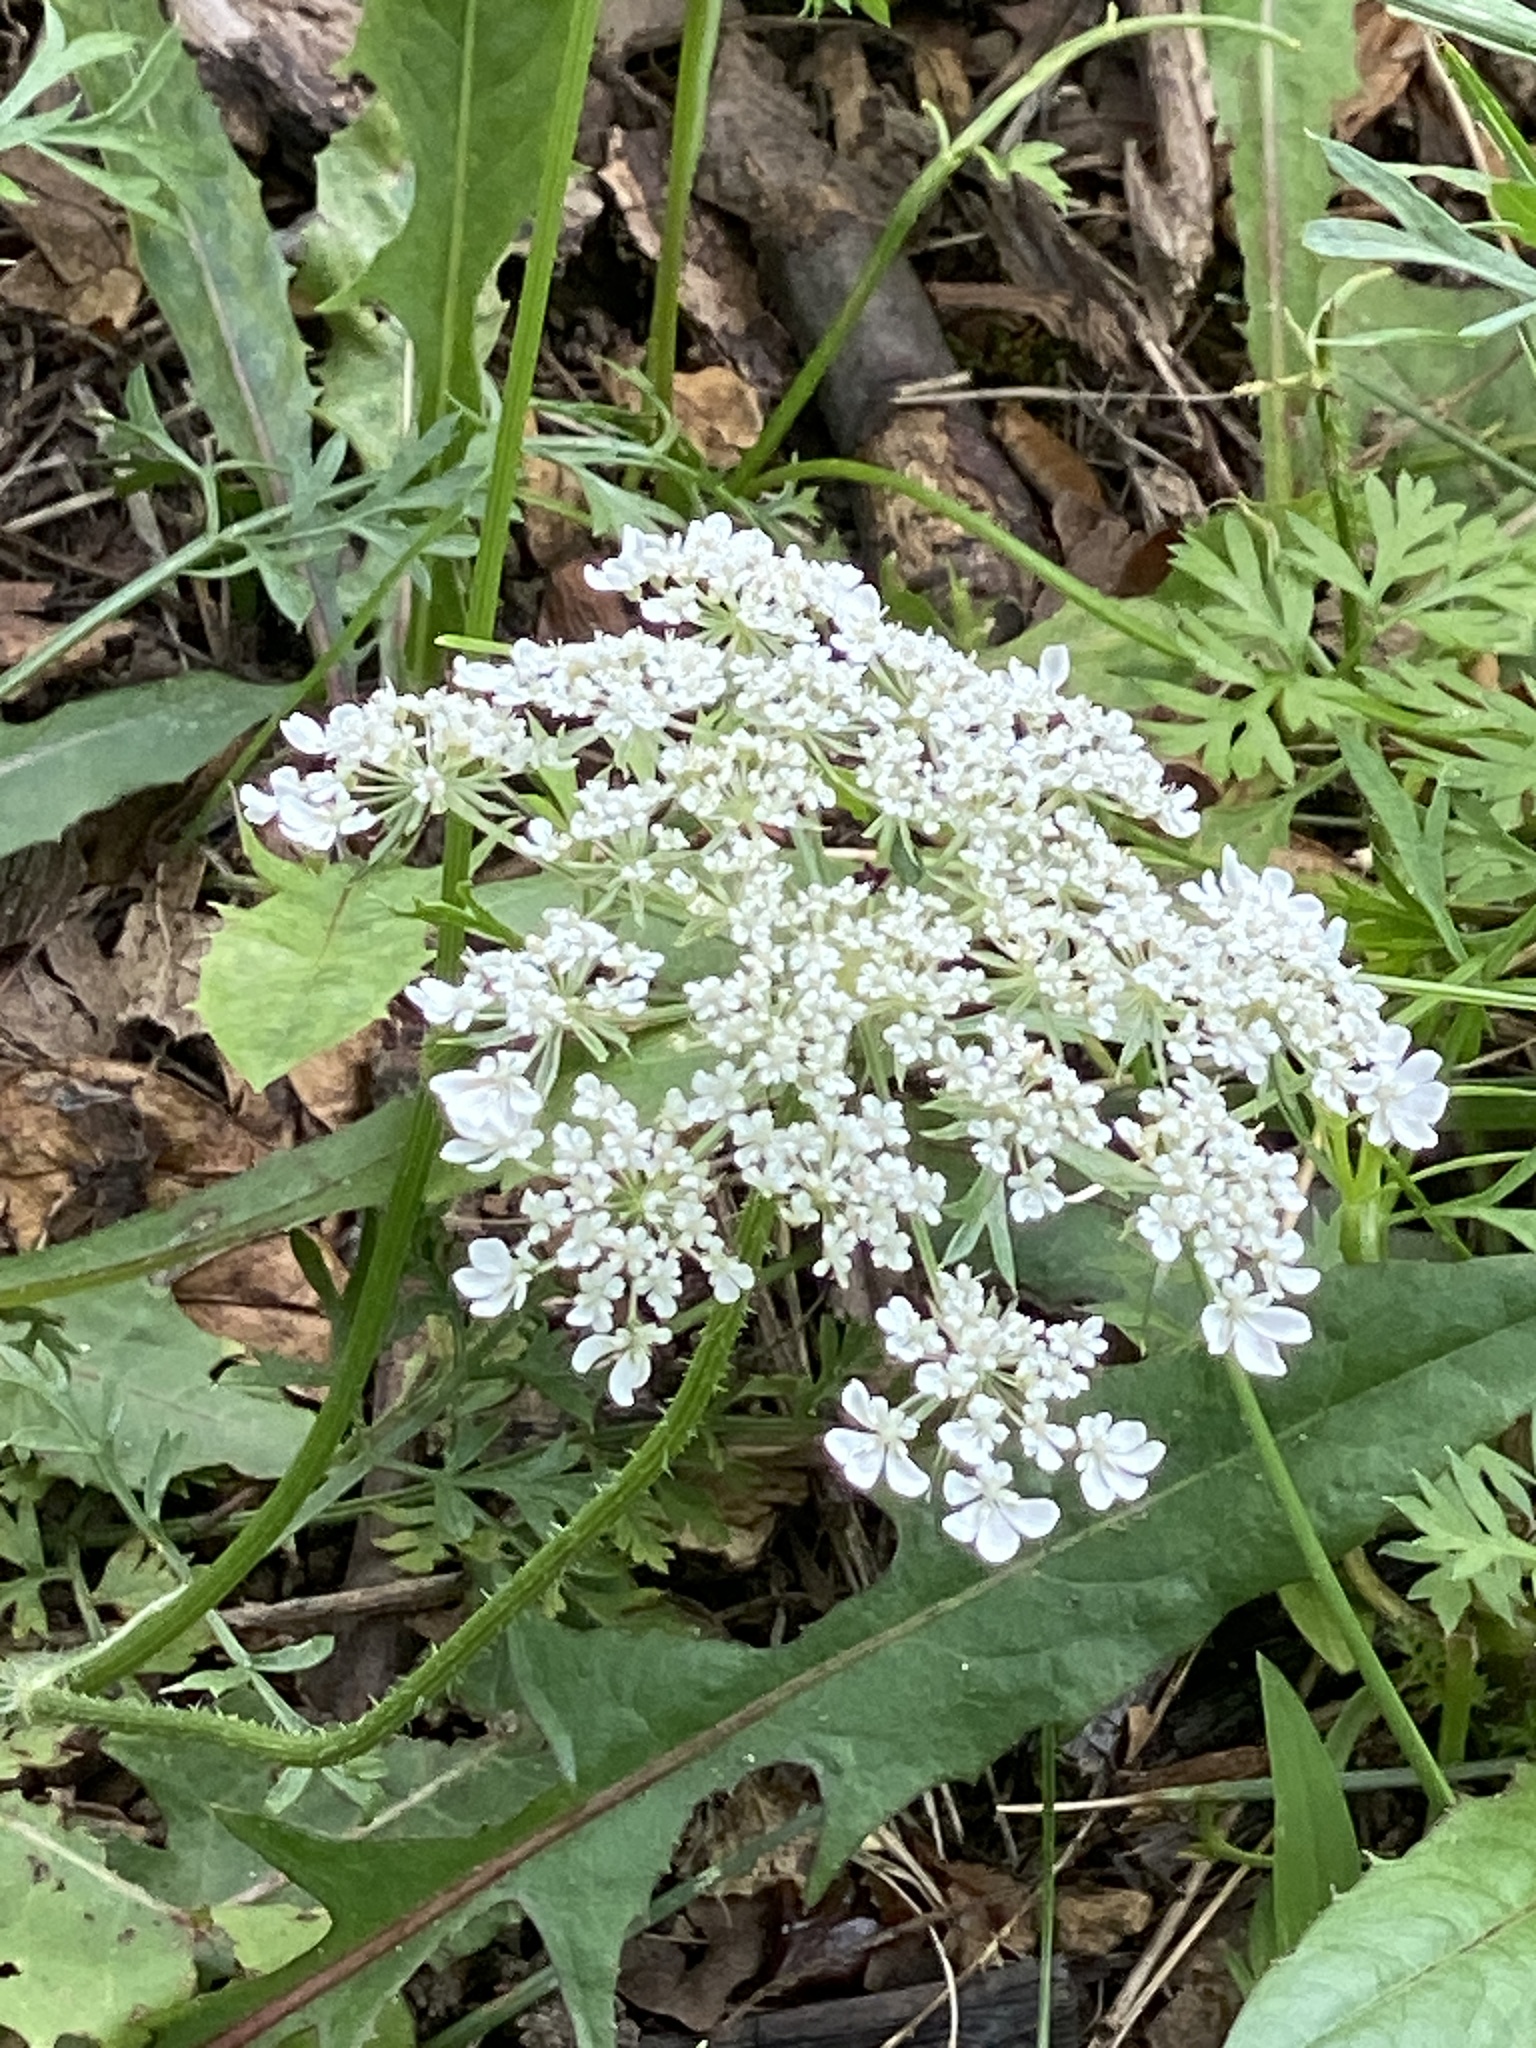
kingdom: Plantae
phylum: Tracheophyta
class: Magnoliopsida
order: Apiales
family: Apiaceae
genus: Daucus
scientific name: Daucus carota
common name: Wild carrot
